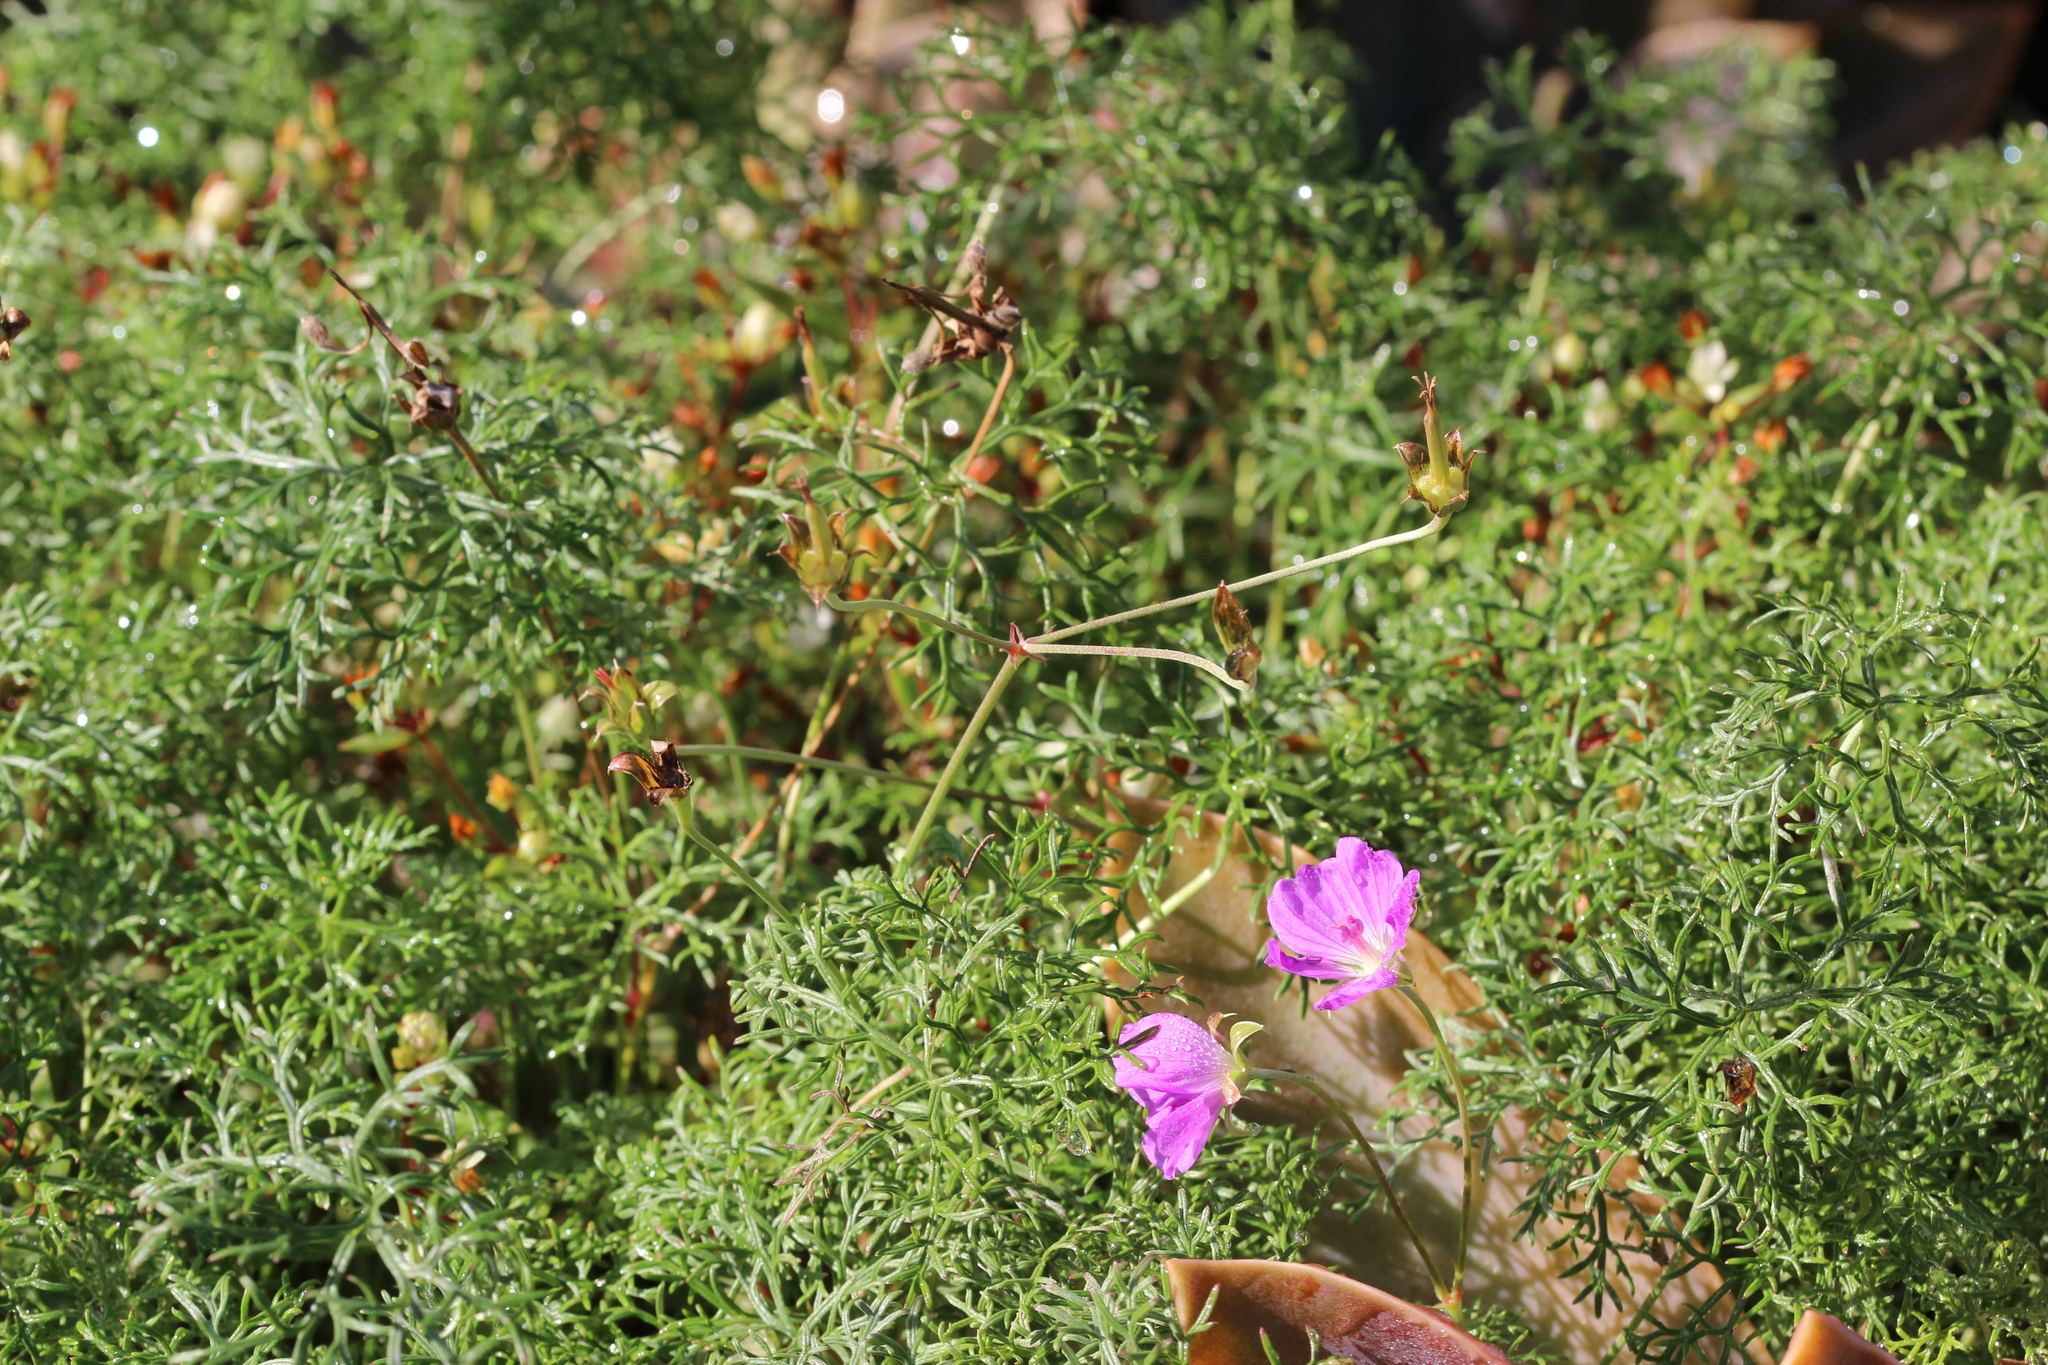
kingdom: Plantae
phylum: Tracheophyta
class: Magnoliopsida
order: Geraniales
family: Geraniaceae
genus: Geranium
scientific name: Geranium incanum
